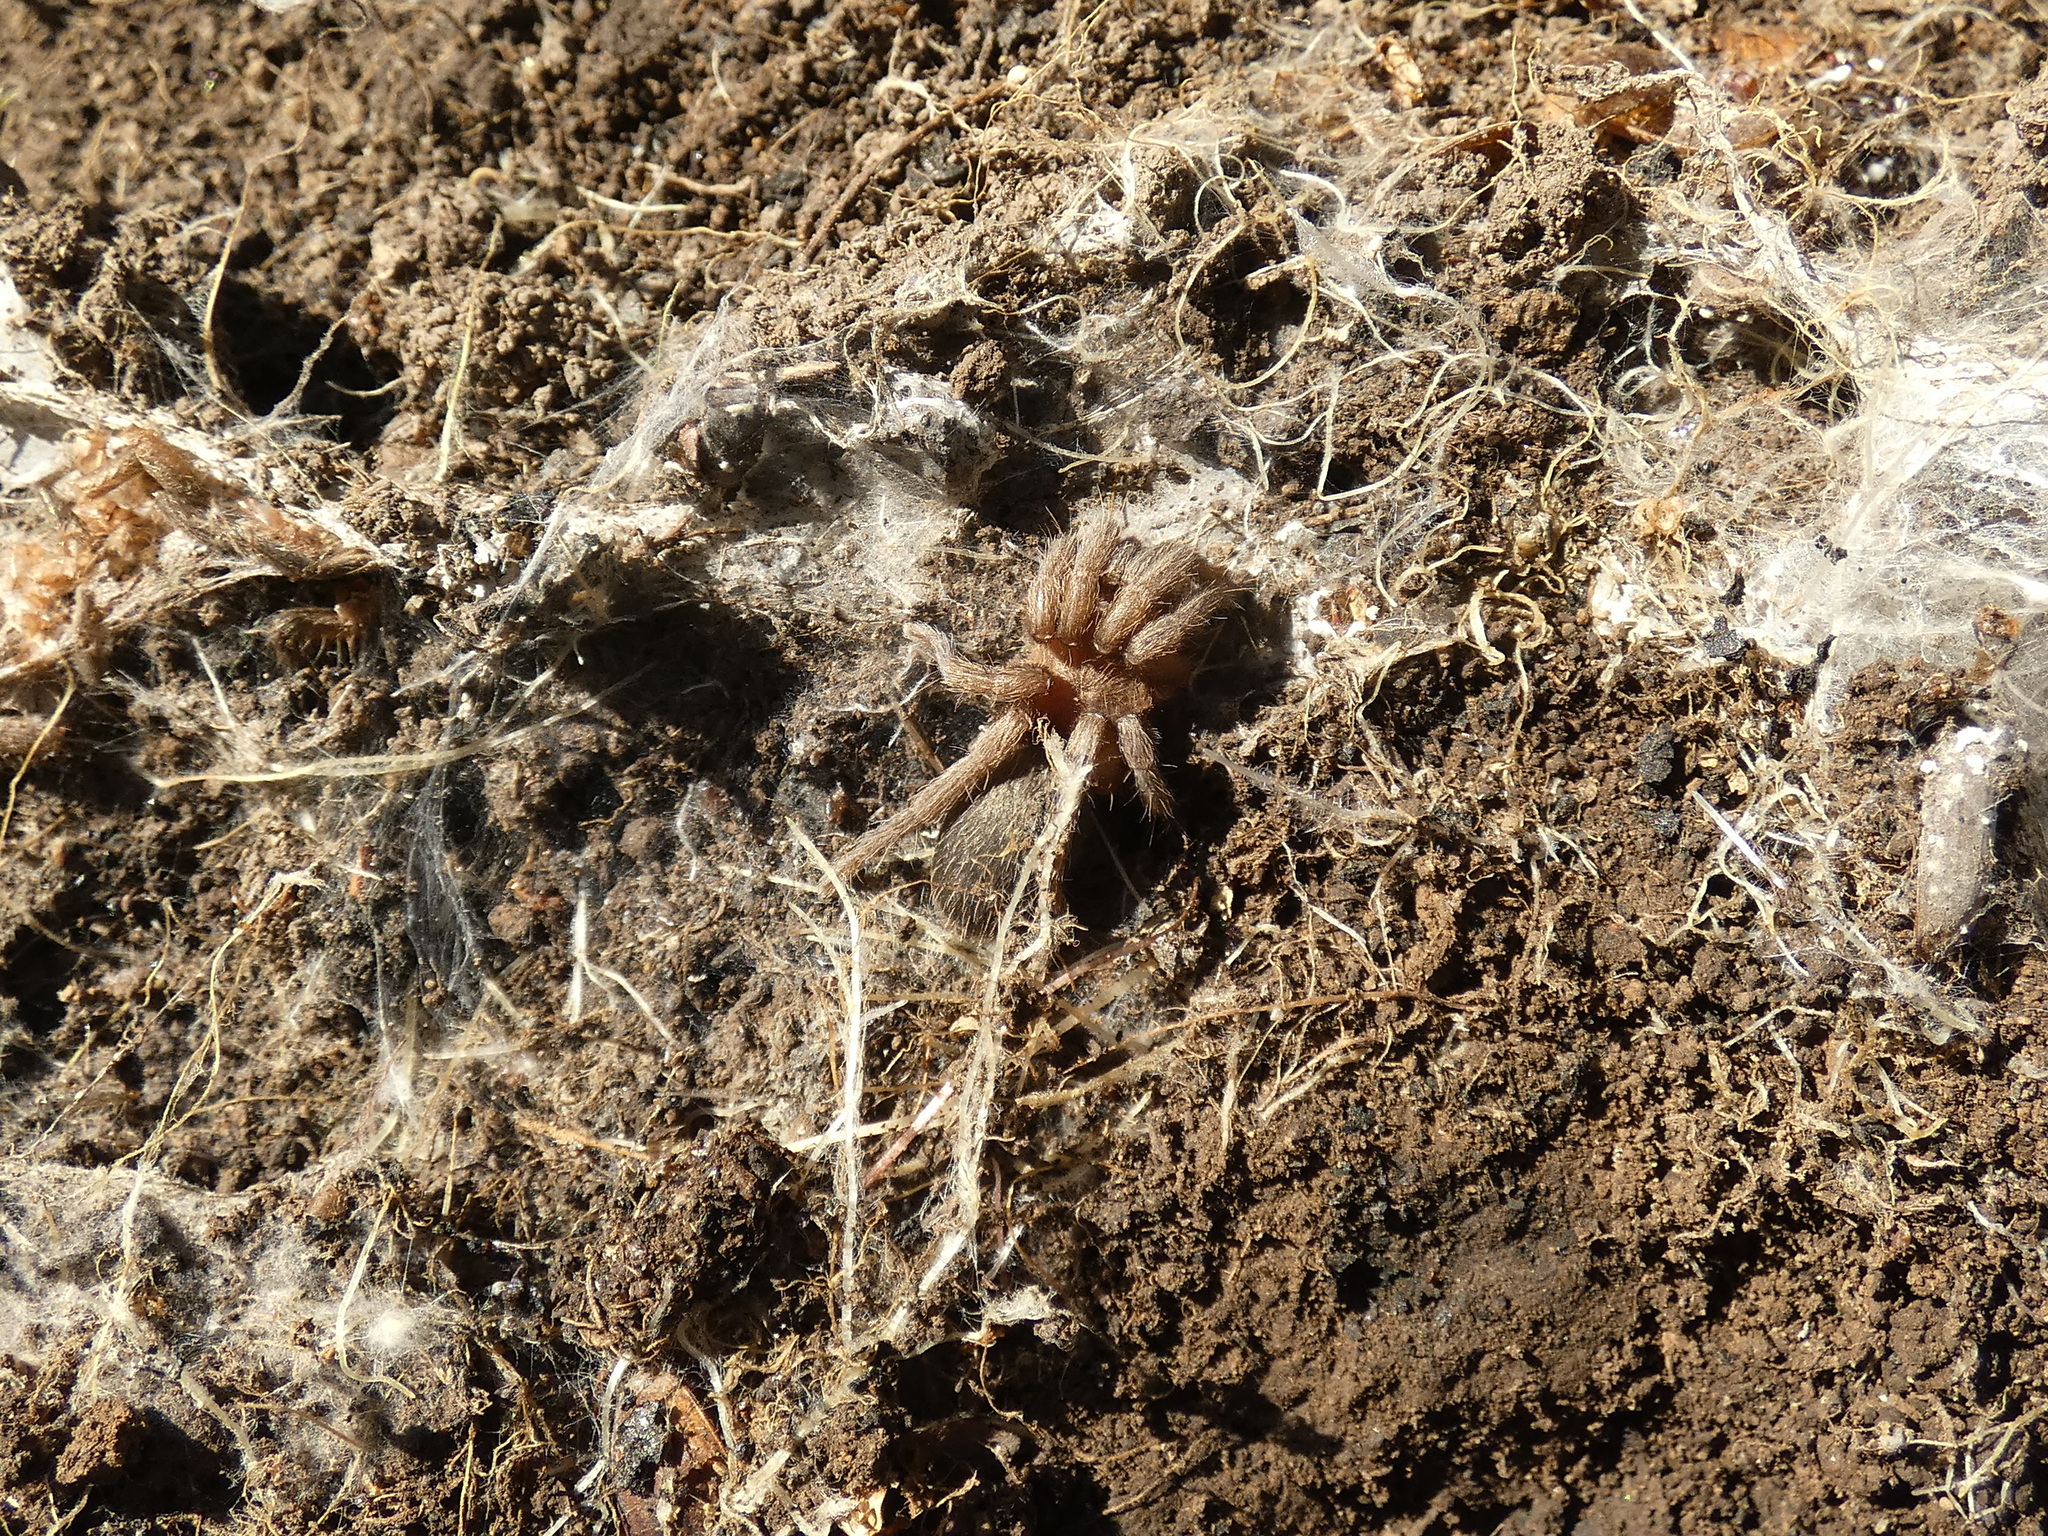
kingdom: Animalia
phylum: Arthropoda
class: Arachnida
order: Araneae
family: Theraphosidae
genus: Catumiri
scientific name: Catumiri argentinense
